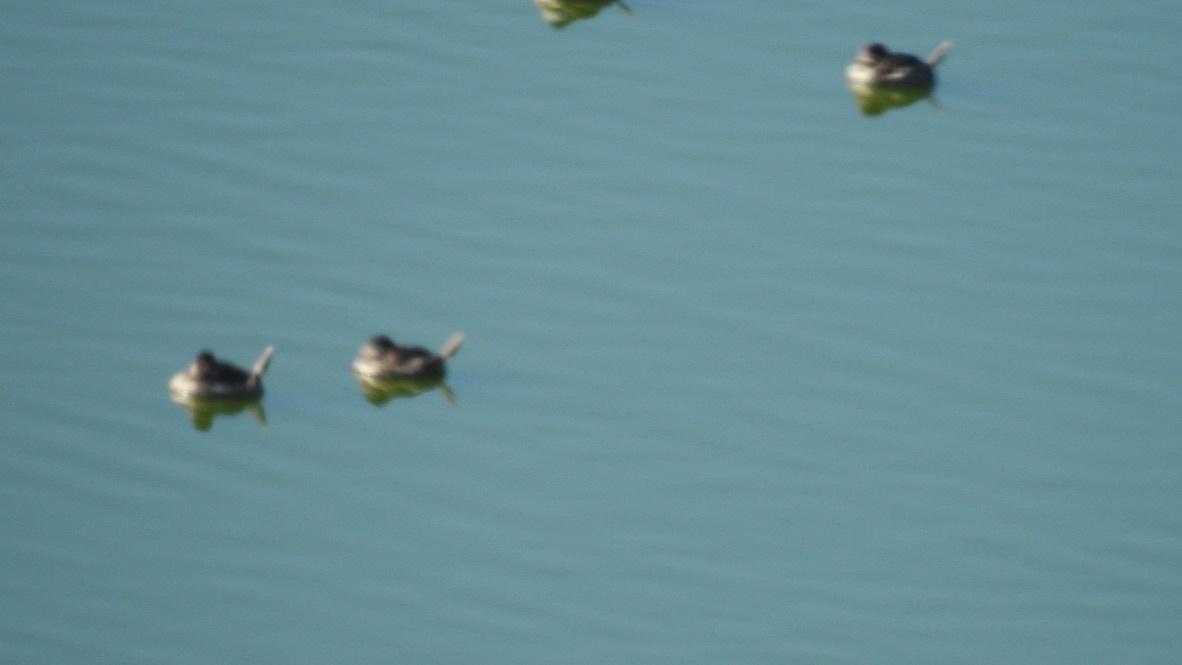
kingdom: Animalia
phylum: Chordata
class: Aves
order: Anseriformes
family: Anatidae
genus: Oxyura
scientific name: Oxyura jamaicensis
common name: Ruddy duck
